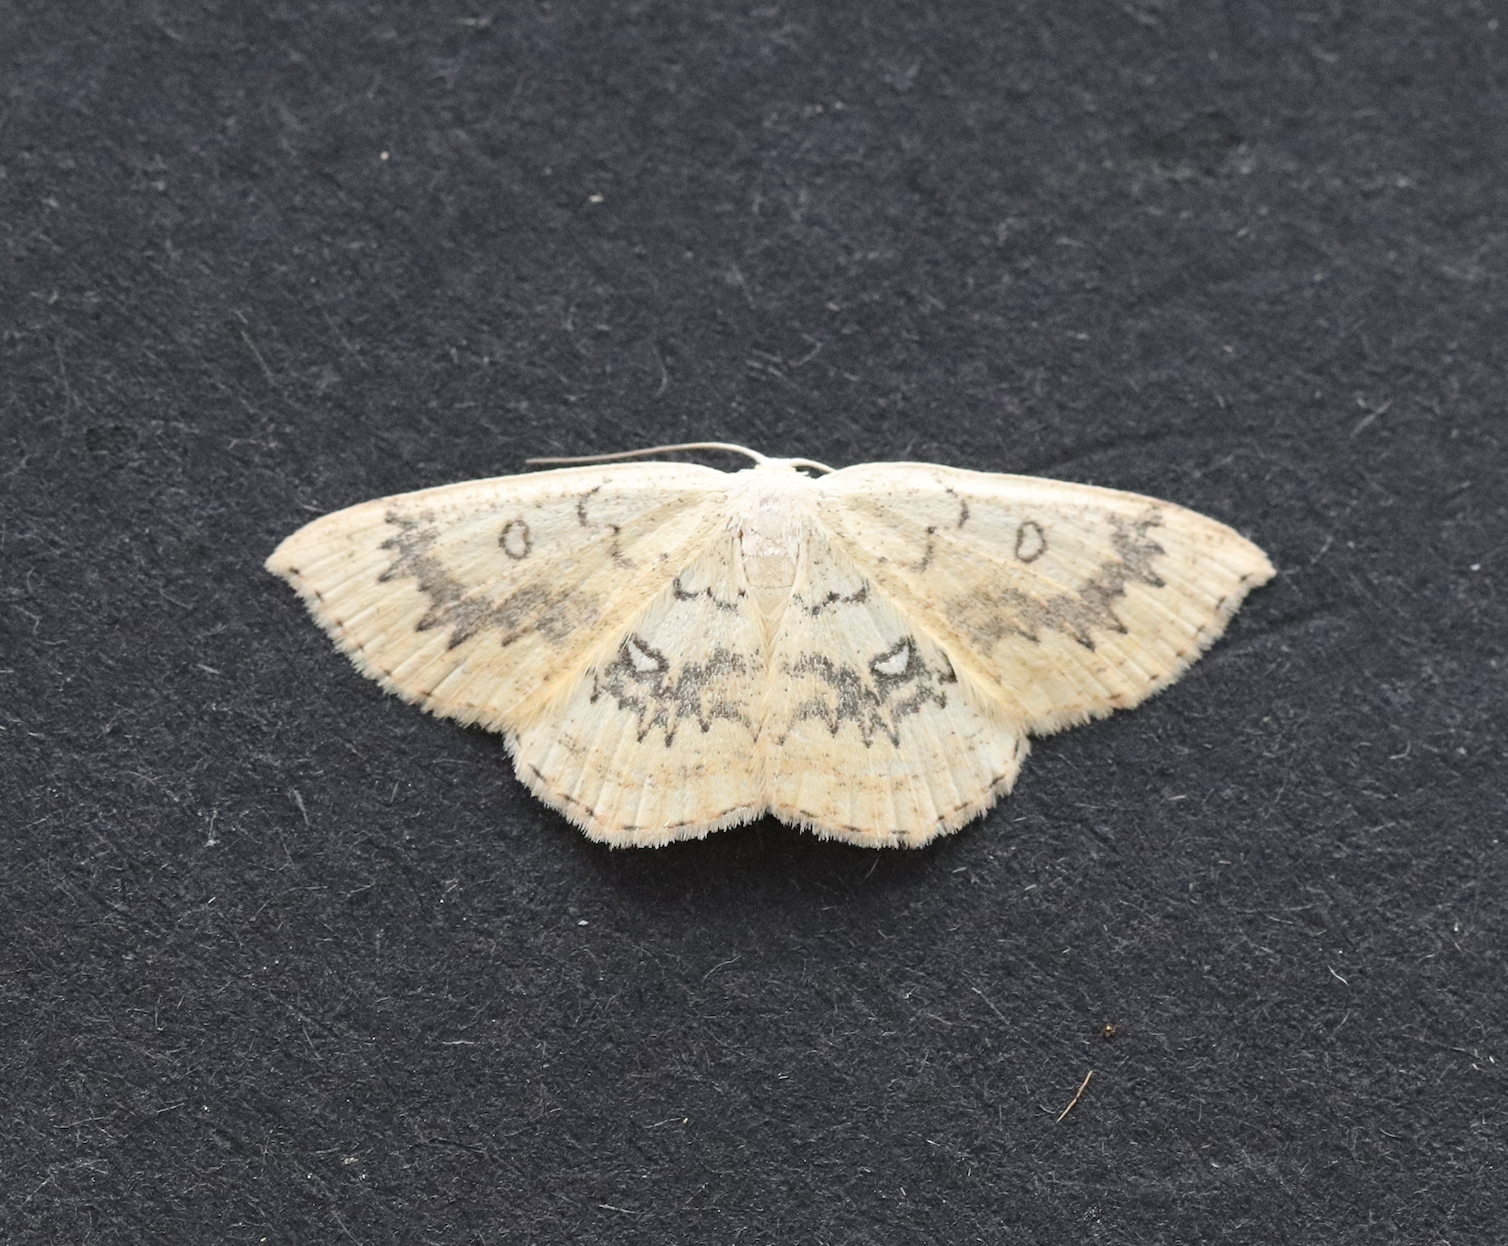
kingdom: Animalia
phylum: Arthropoda
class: Insecta
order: Lepidoptera
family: Geometridae
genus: Cyclophora
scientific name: Cyclophora annularia
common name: Mocha
